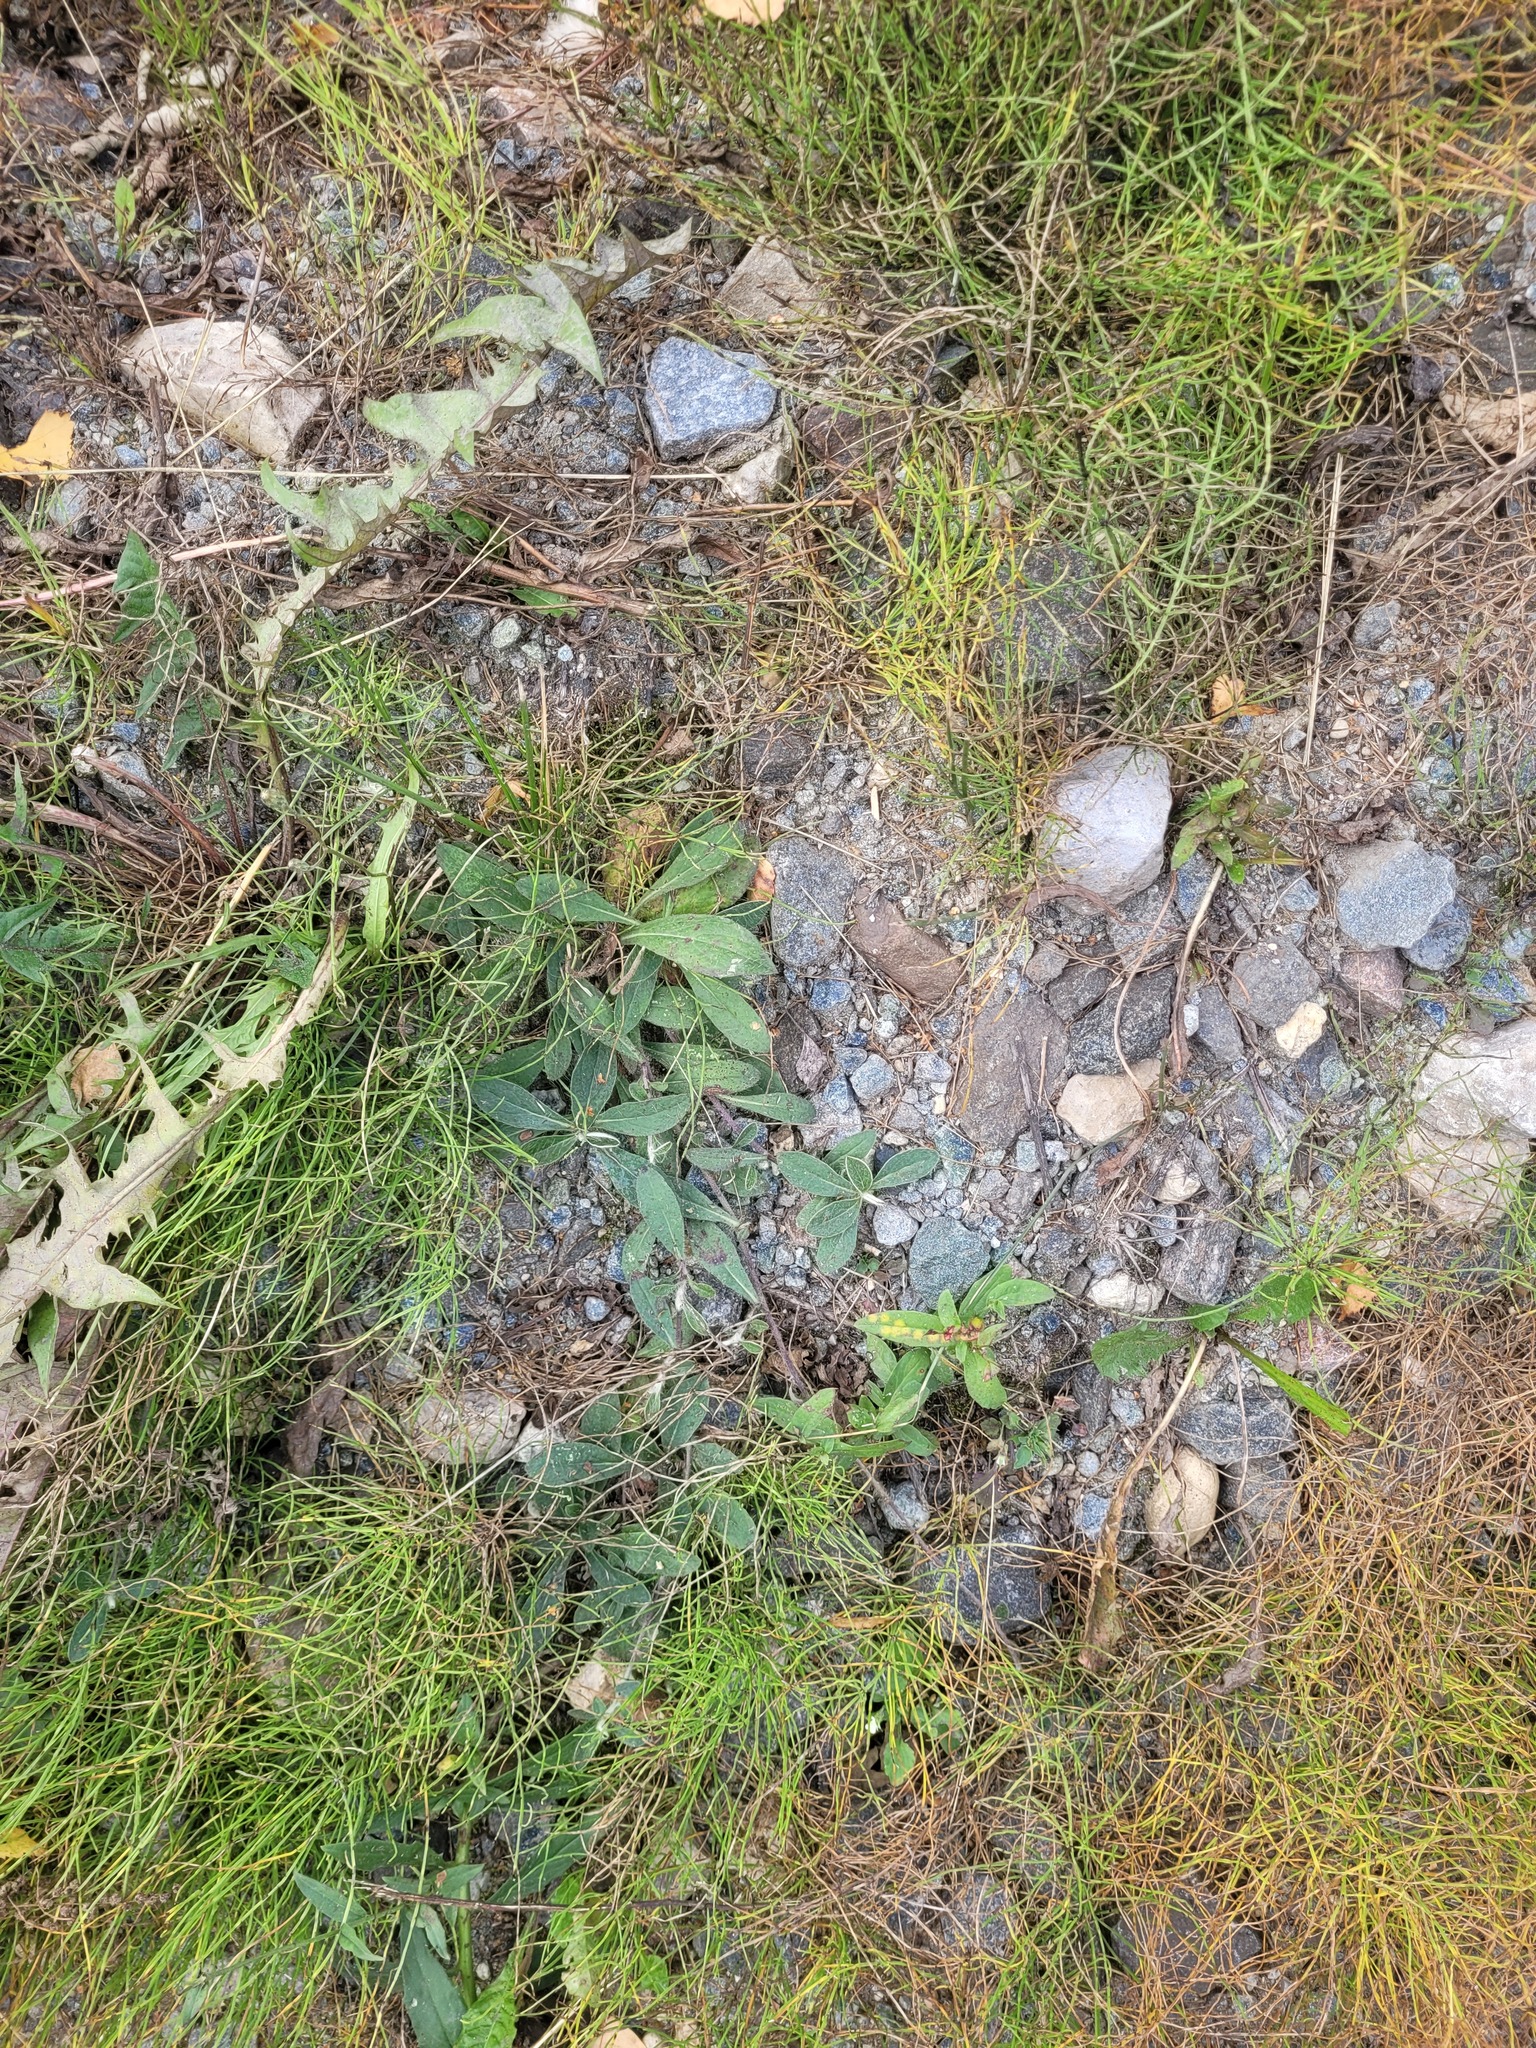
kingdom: Plantae
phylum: Tracheophyta
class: Magnoliopsida
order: Asterales
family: Asteraceae
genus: Pilosella
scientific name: Pilosella officinarum
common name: Mouse-ear hawkweed
